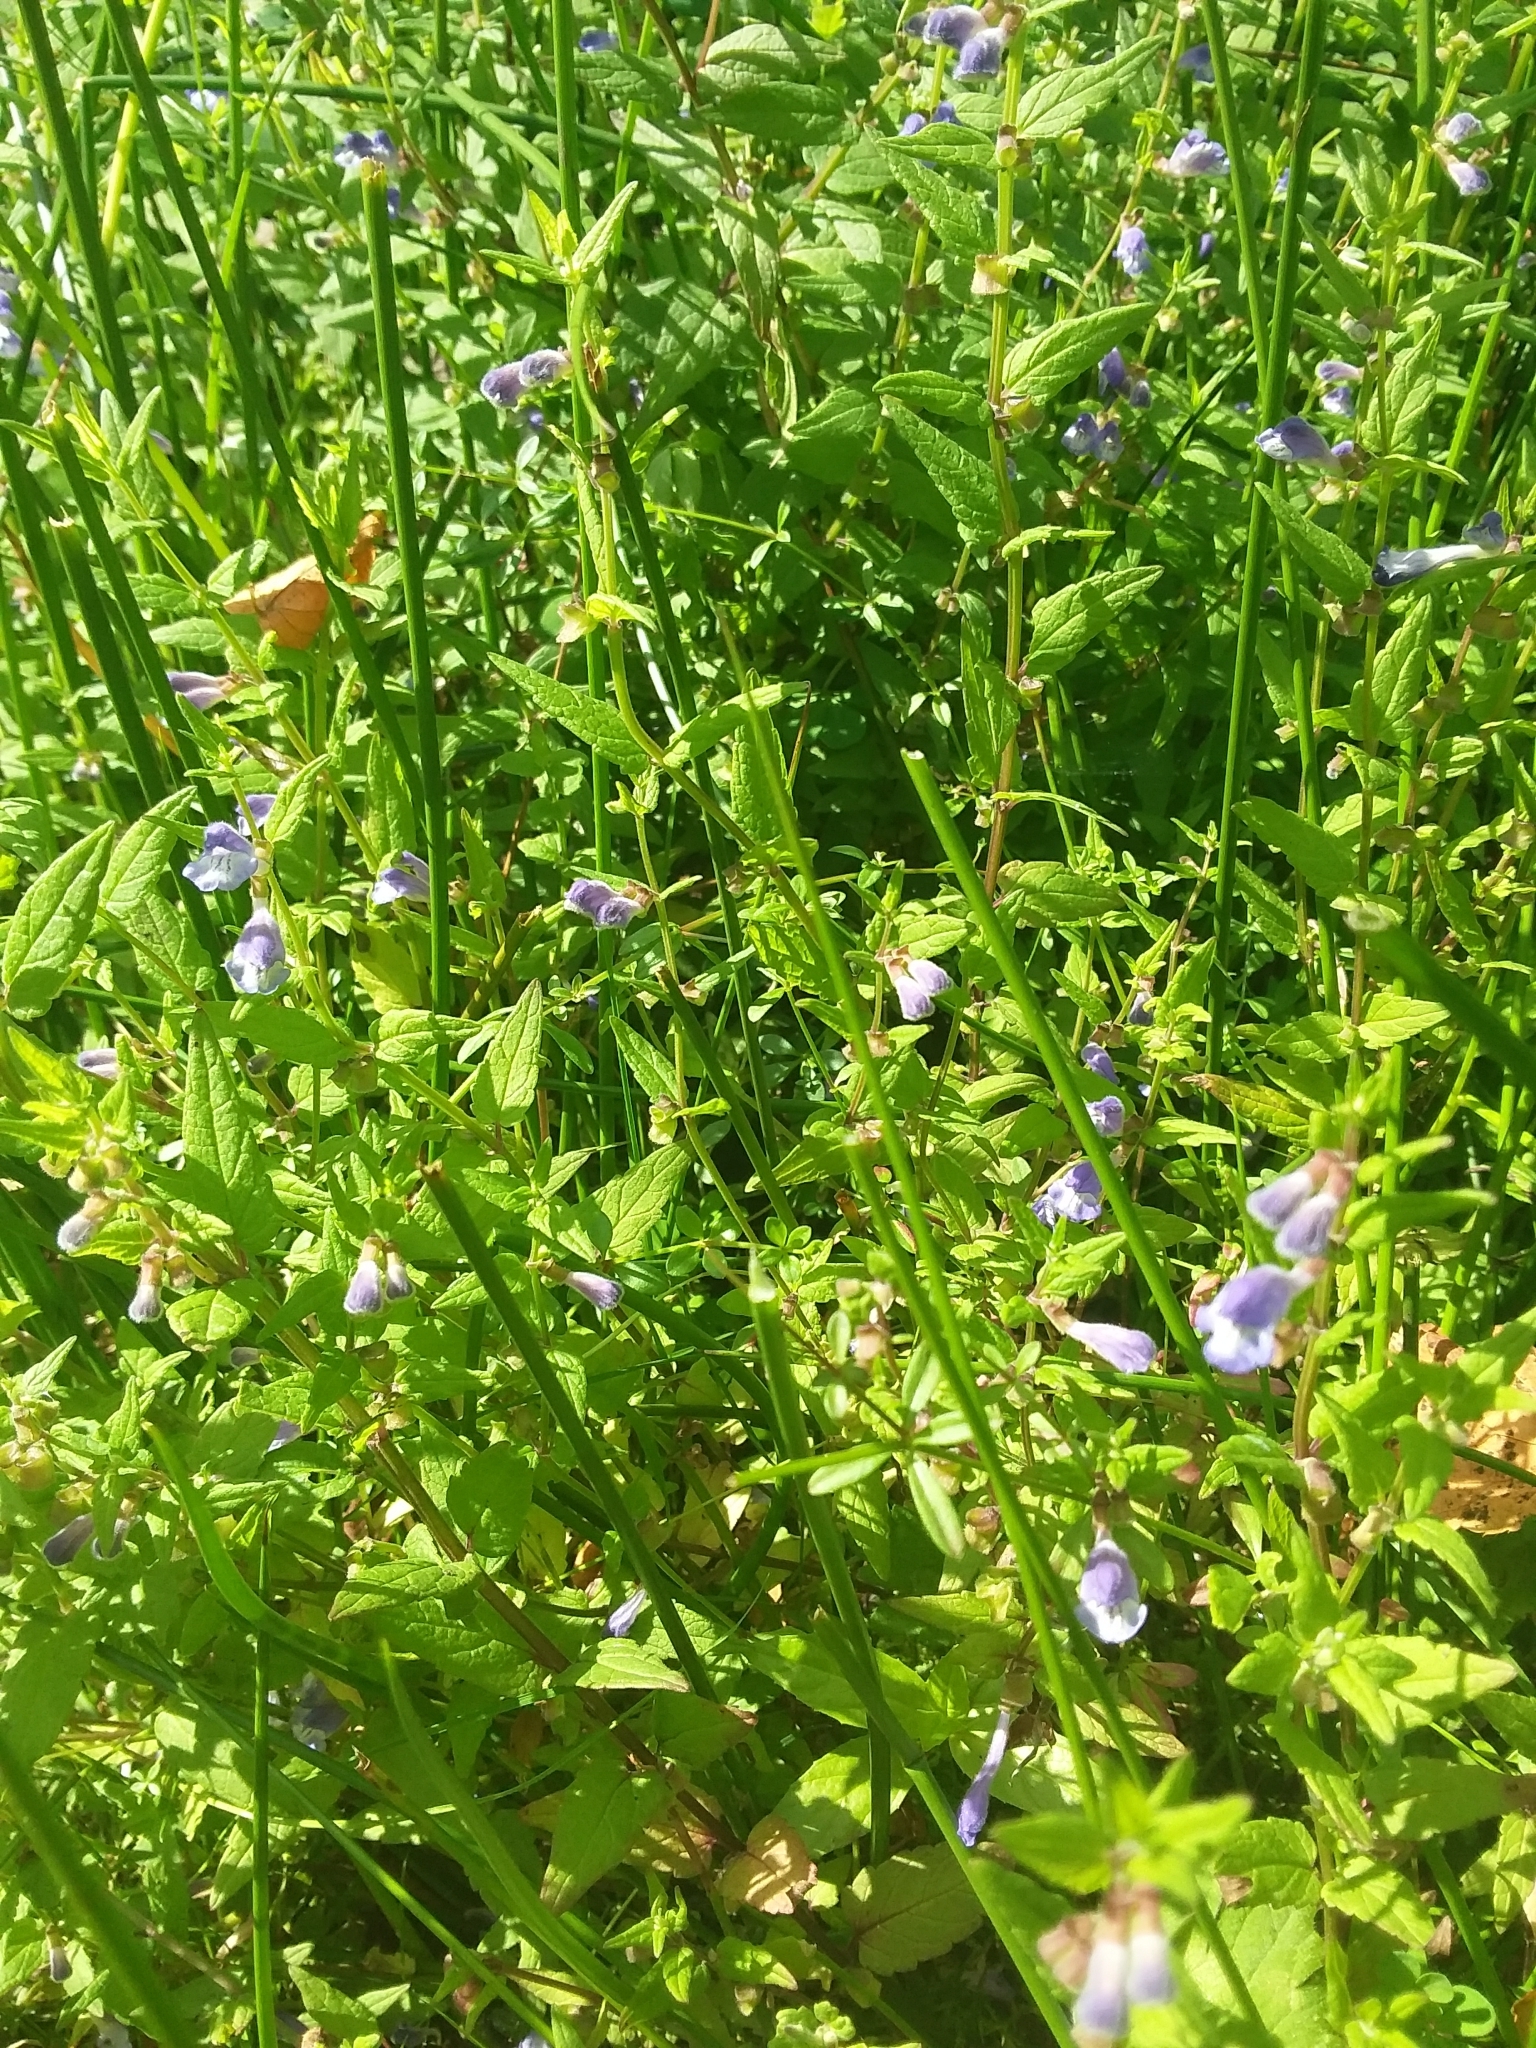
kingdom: Plantae
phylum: Tracheophyta
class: Magnoliopsida
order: Lamiales
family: Lamiaceae
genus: Scutellaria
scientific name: Scutellaria galericulata
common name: Skullcap
